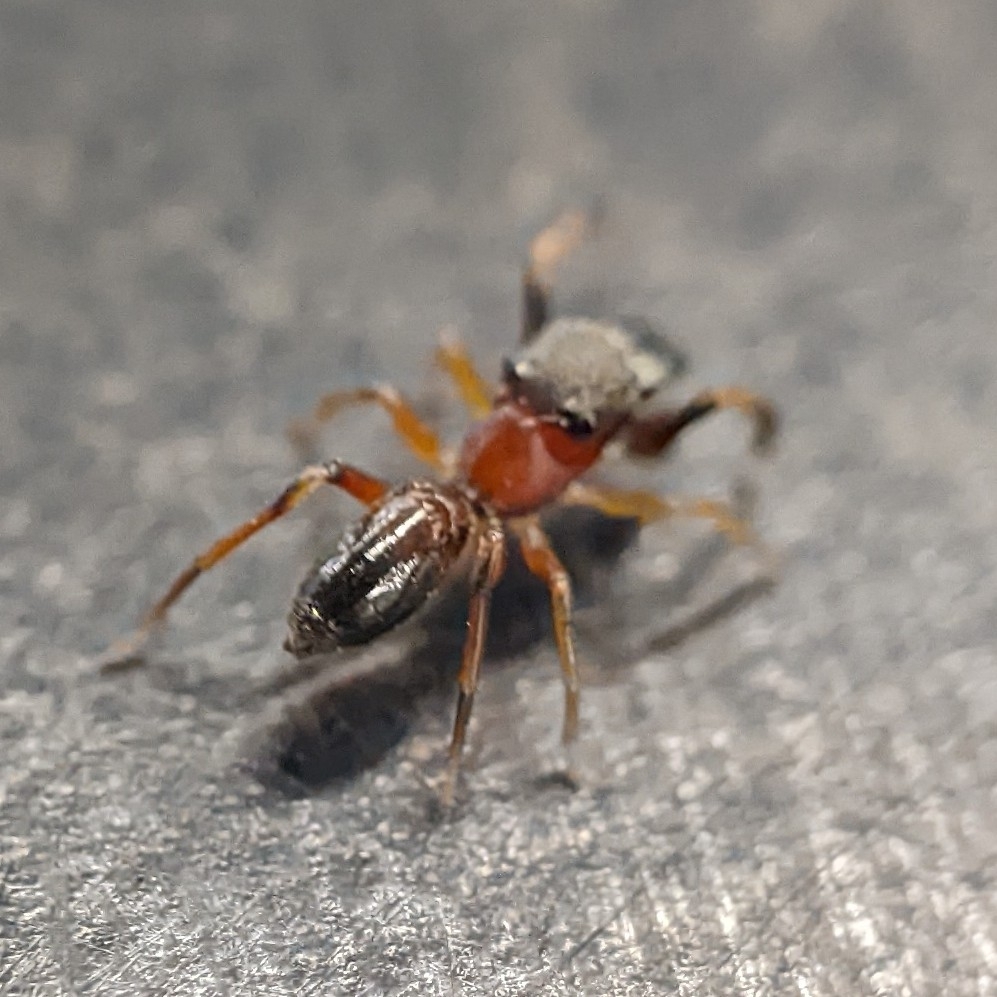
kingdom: Animalia
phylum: Arthropoda
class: Arachnida
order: Araneae
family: Salticidae
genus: Myrmarachne
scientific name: Myrmarachne formicaria
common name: Ant mimic jumping spider
